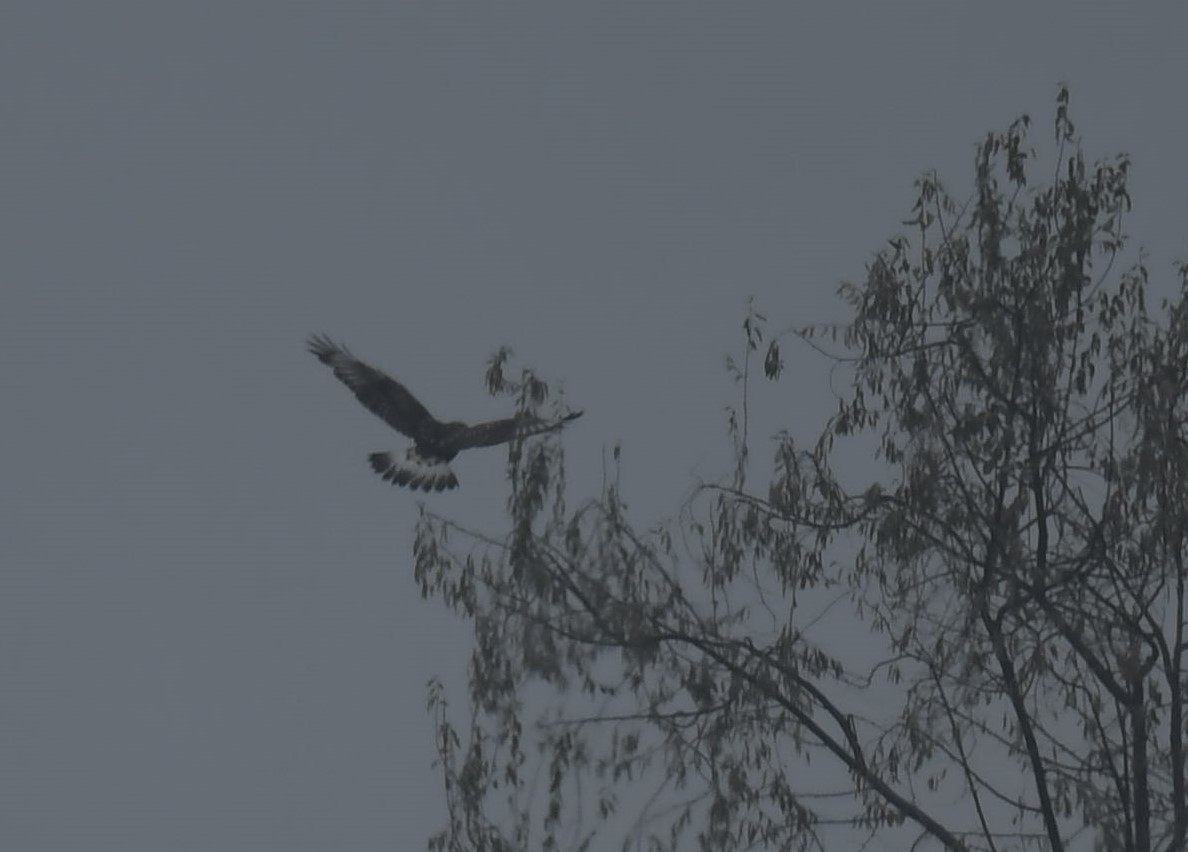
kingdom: Animalia
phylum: Chordata
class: Aves
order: Accipitriformes
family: Accipitridae
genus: Buteo
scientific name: Buteo lagopus
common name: Rough-legged buzzard
